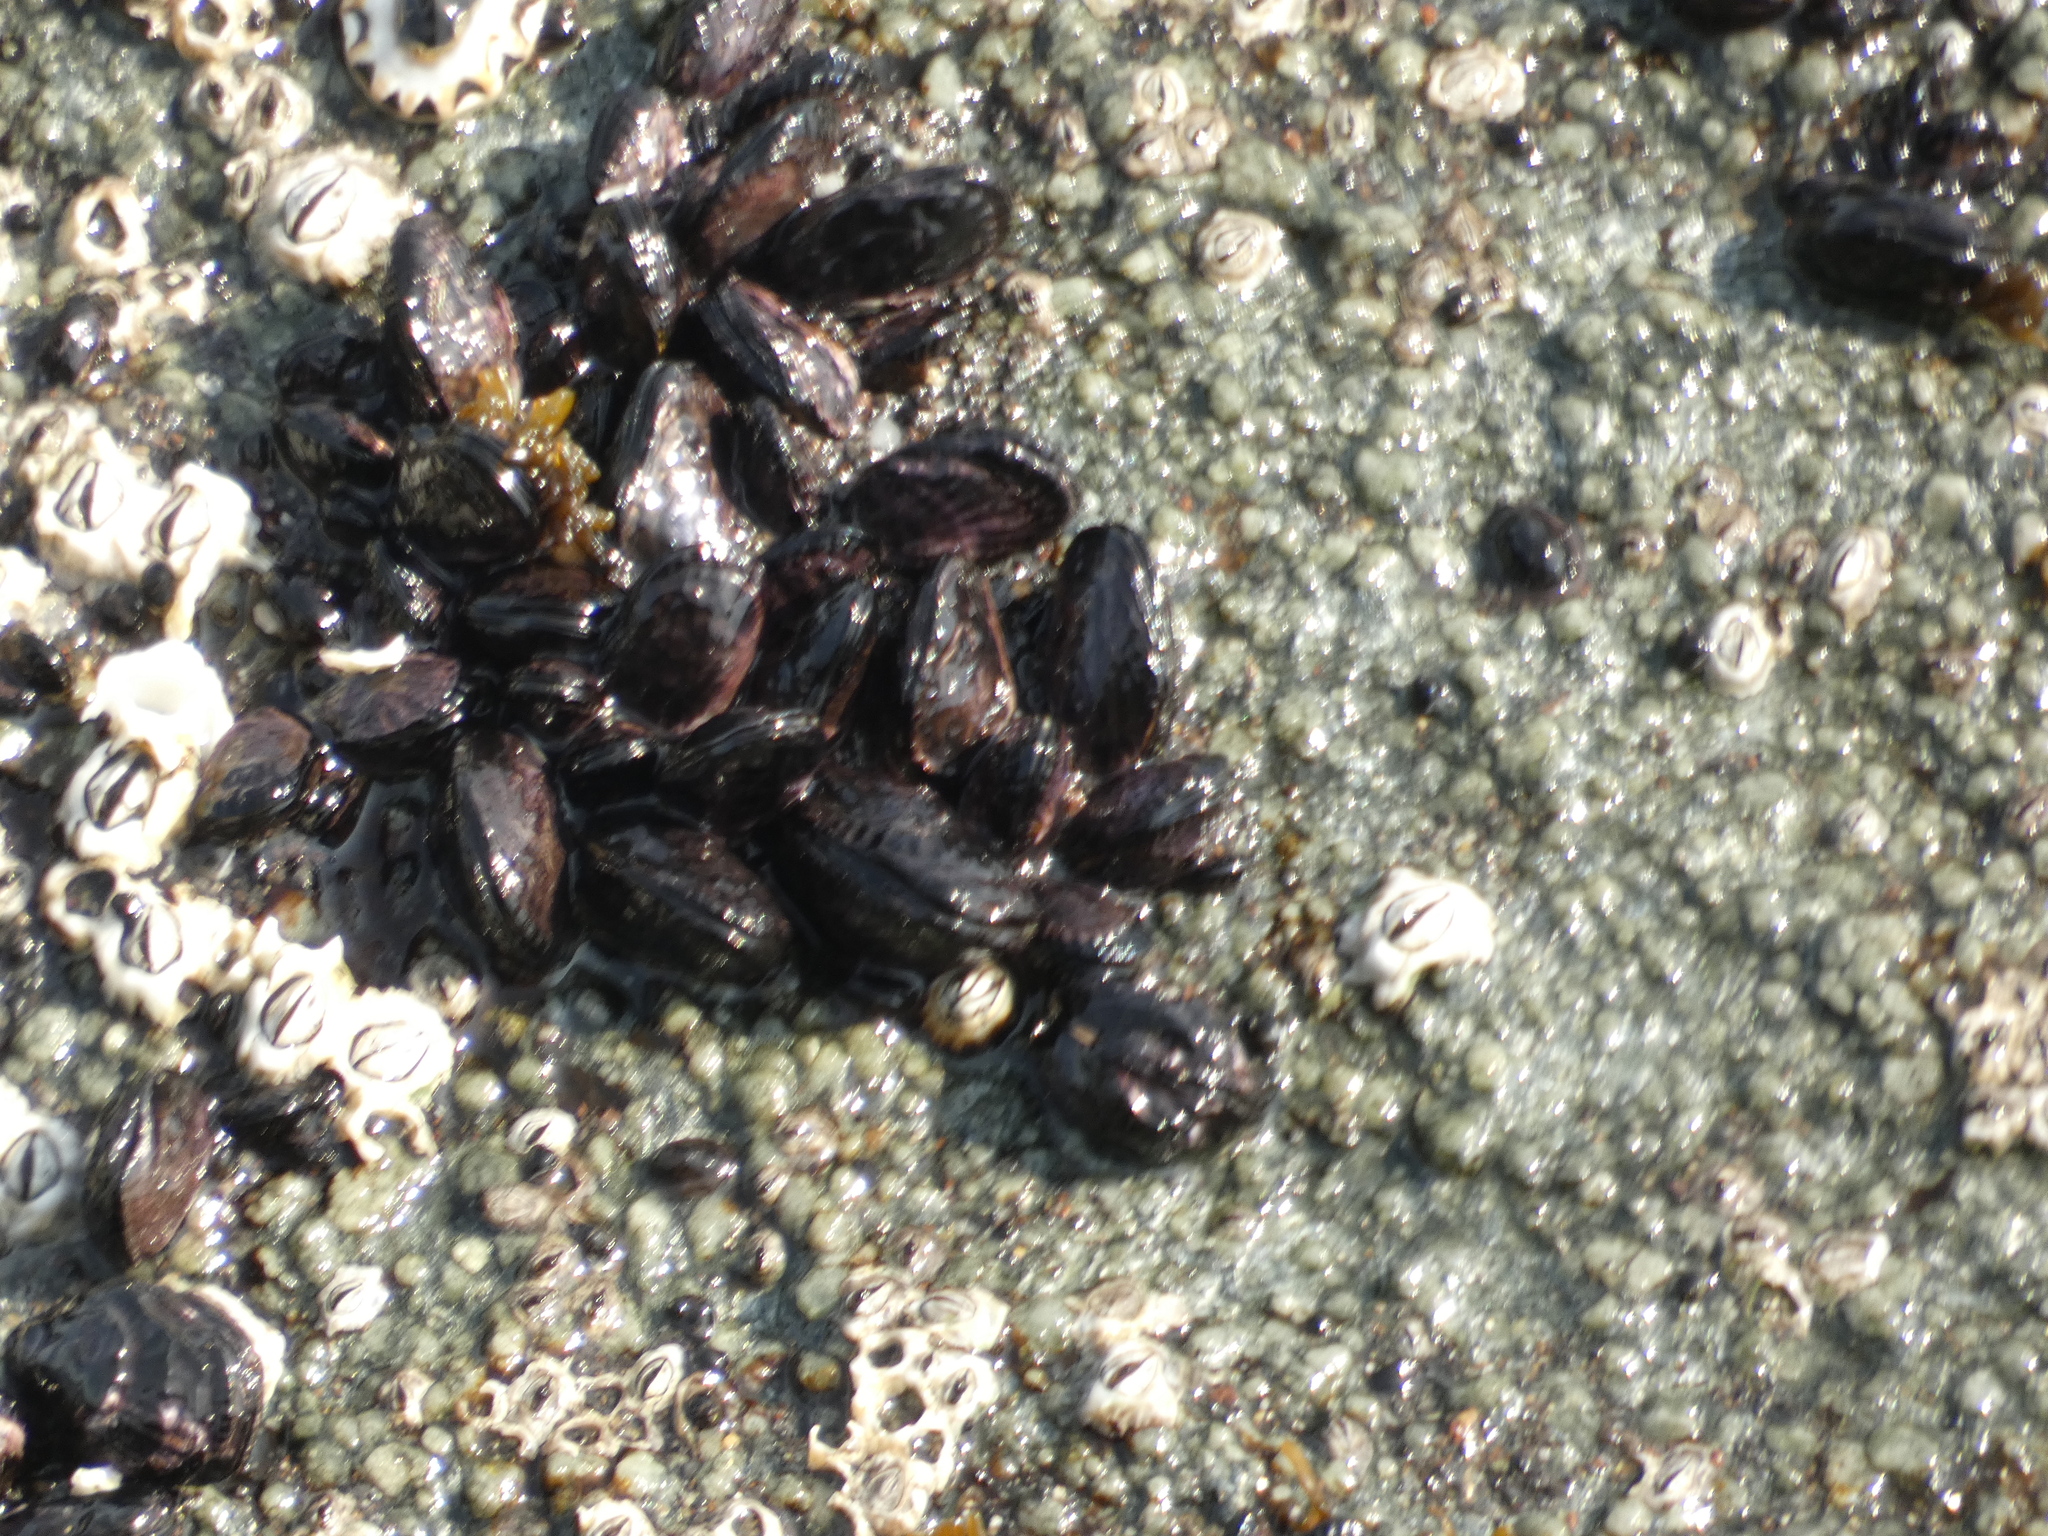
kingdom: Animalia
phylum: Mollusca
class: Bivalvia
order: Mytilida
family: Mytilidae
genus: Perumytilus
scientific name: Perumytilus purpuratus
